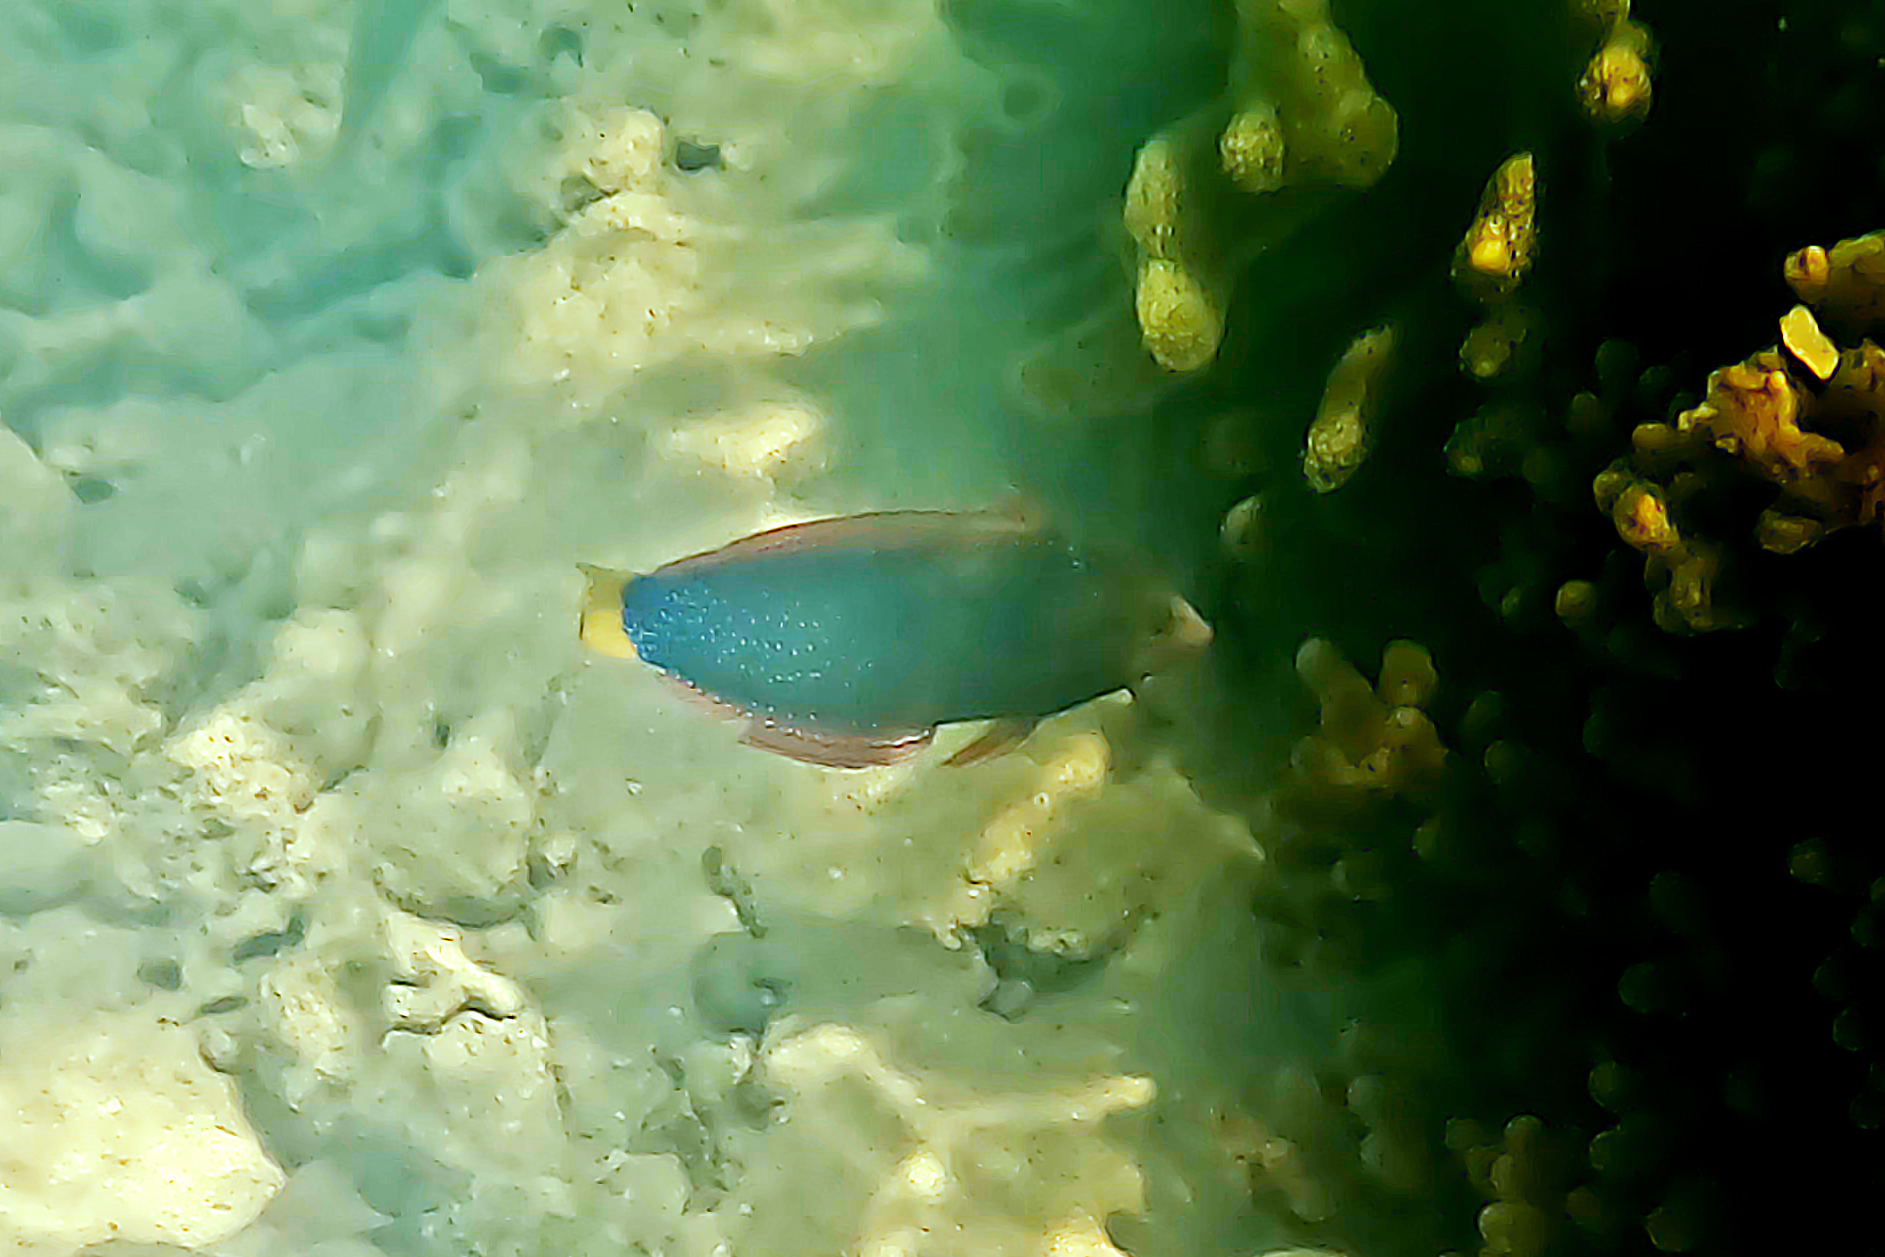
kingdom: Animalia
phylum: Chordata
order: Perciformes
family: Labridae
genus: Coris
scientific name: Coris gaimard
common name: Yellowtail coris
